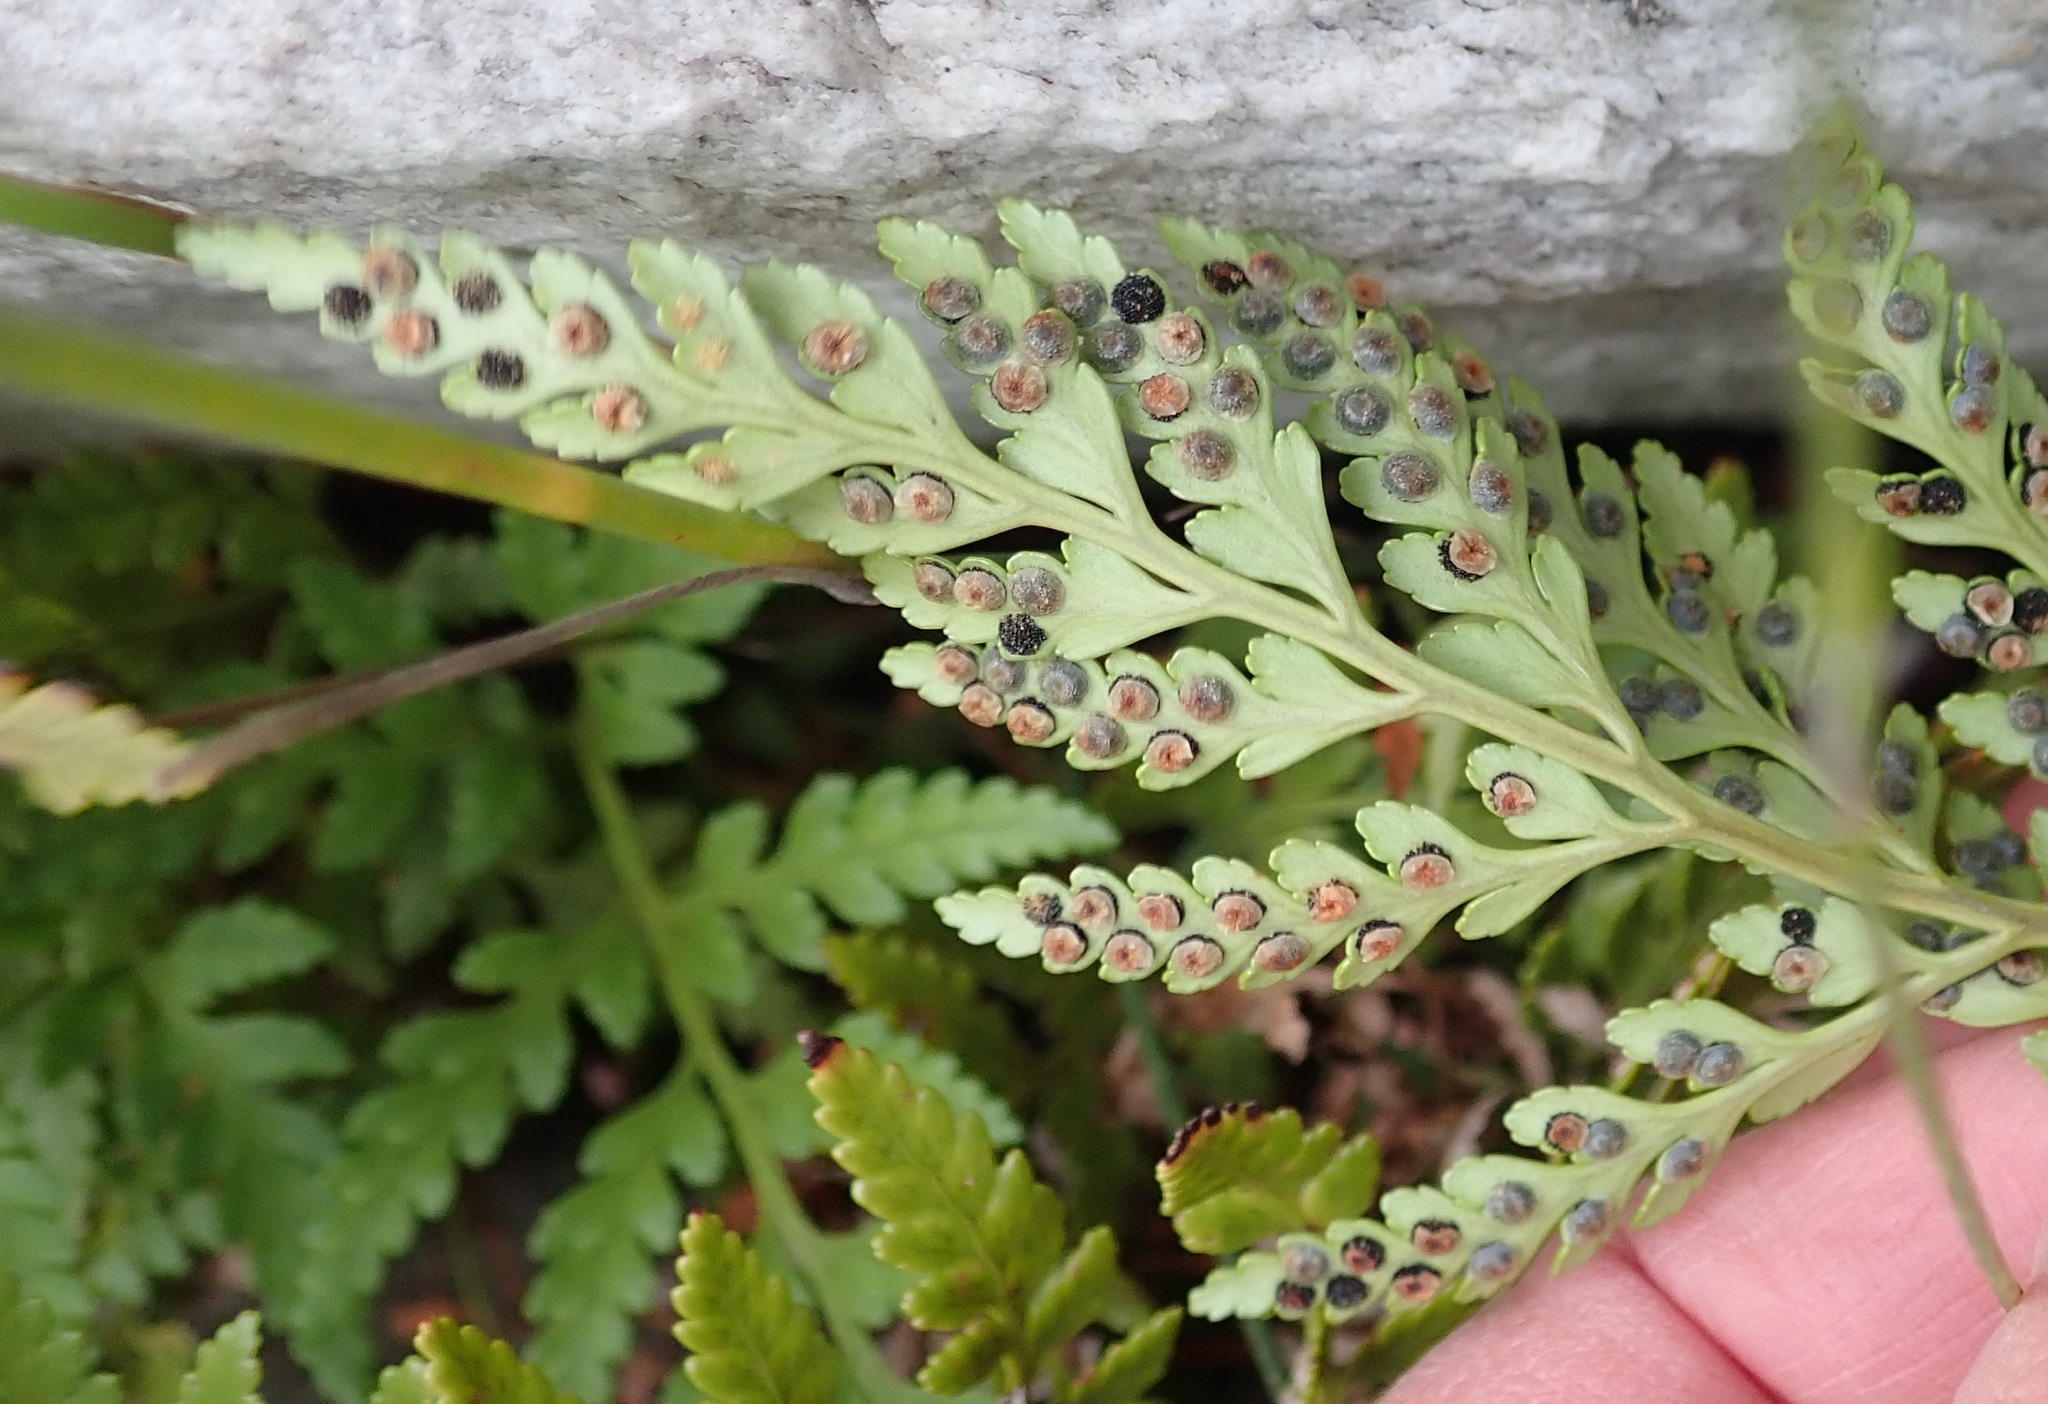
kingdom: Plantae
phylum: Tracheophyta
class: Polypodiopsida
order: Polypodiales
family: Dryopteridaceae
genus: Rumohra
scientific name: Rumohra adiantiformis
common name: Leather fern
